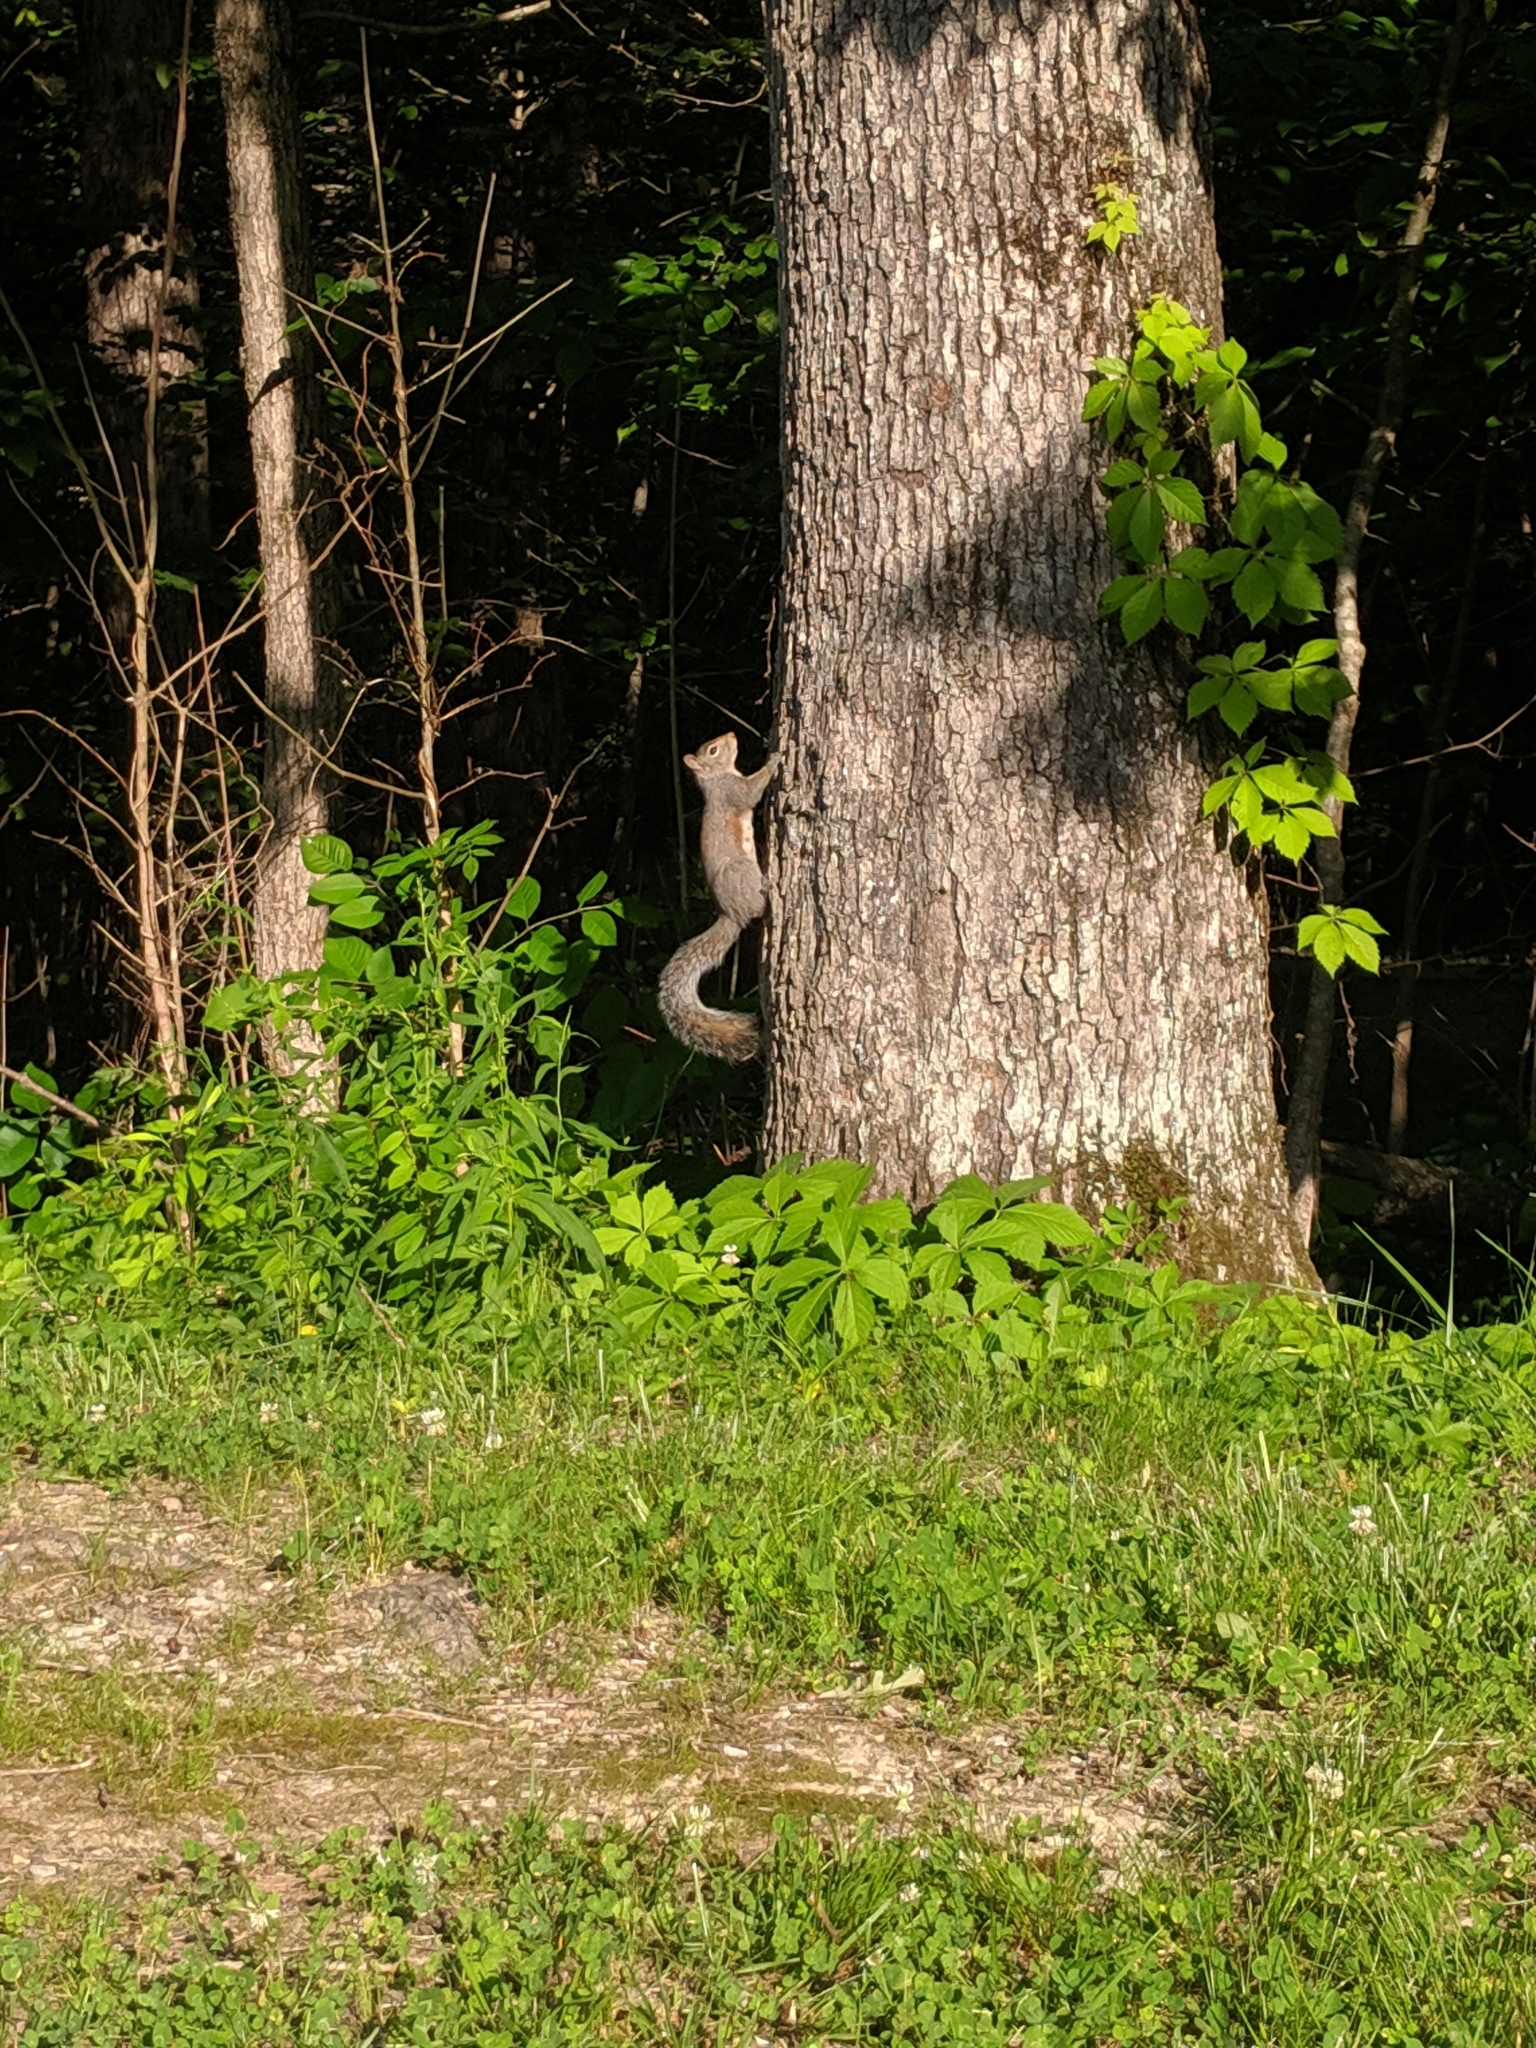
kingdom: Animalia
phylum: Chordata
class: Mammalia
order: Rodentia
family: Sciuridae
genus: Sciurus
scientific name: Sciurus carolinensis
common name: Eastern gray squirrel
